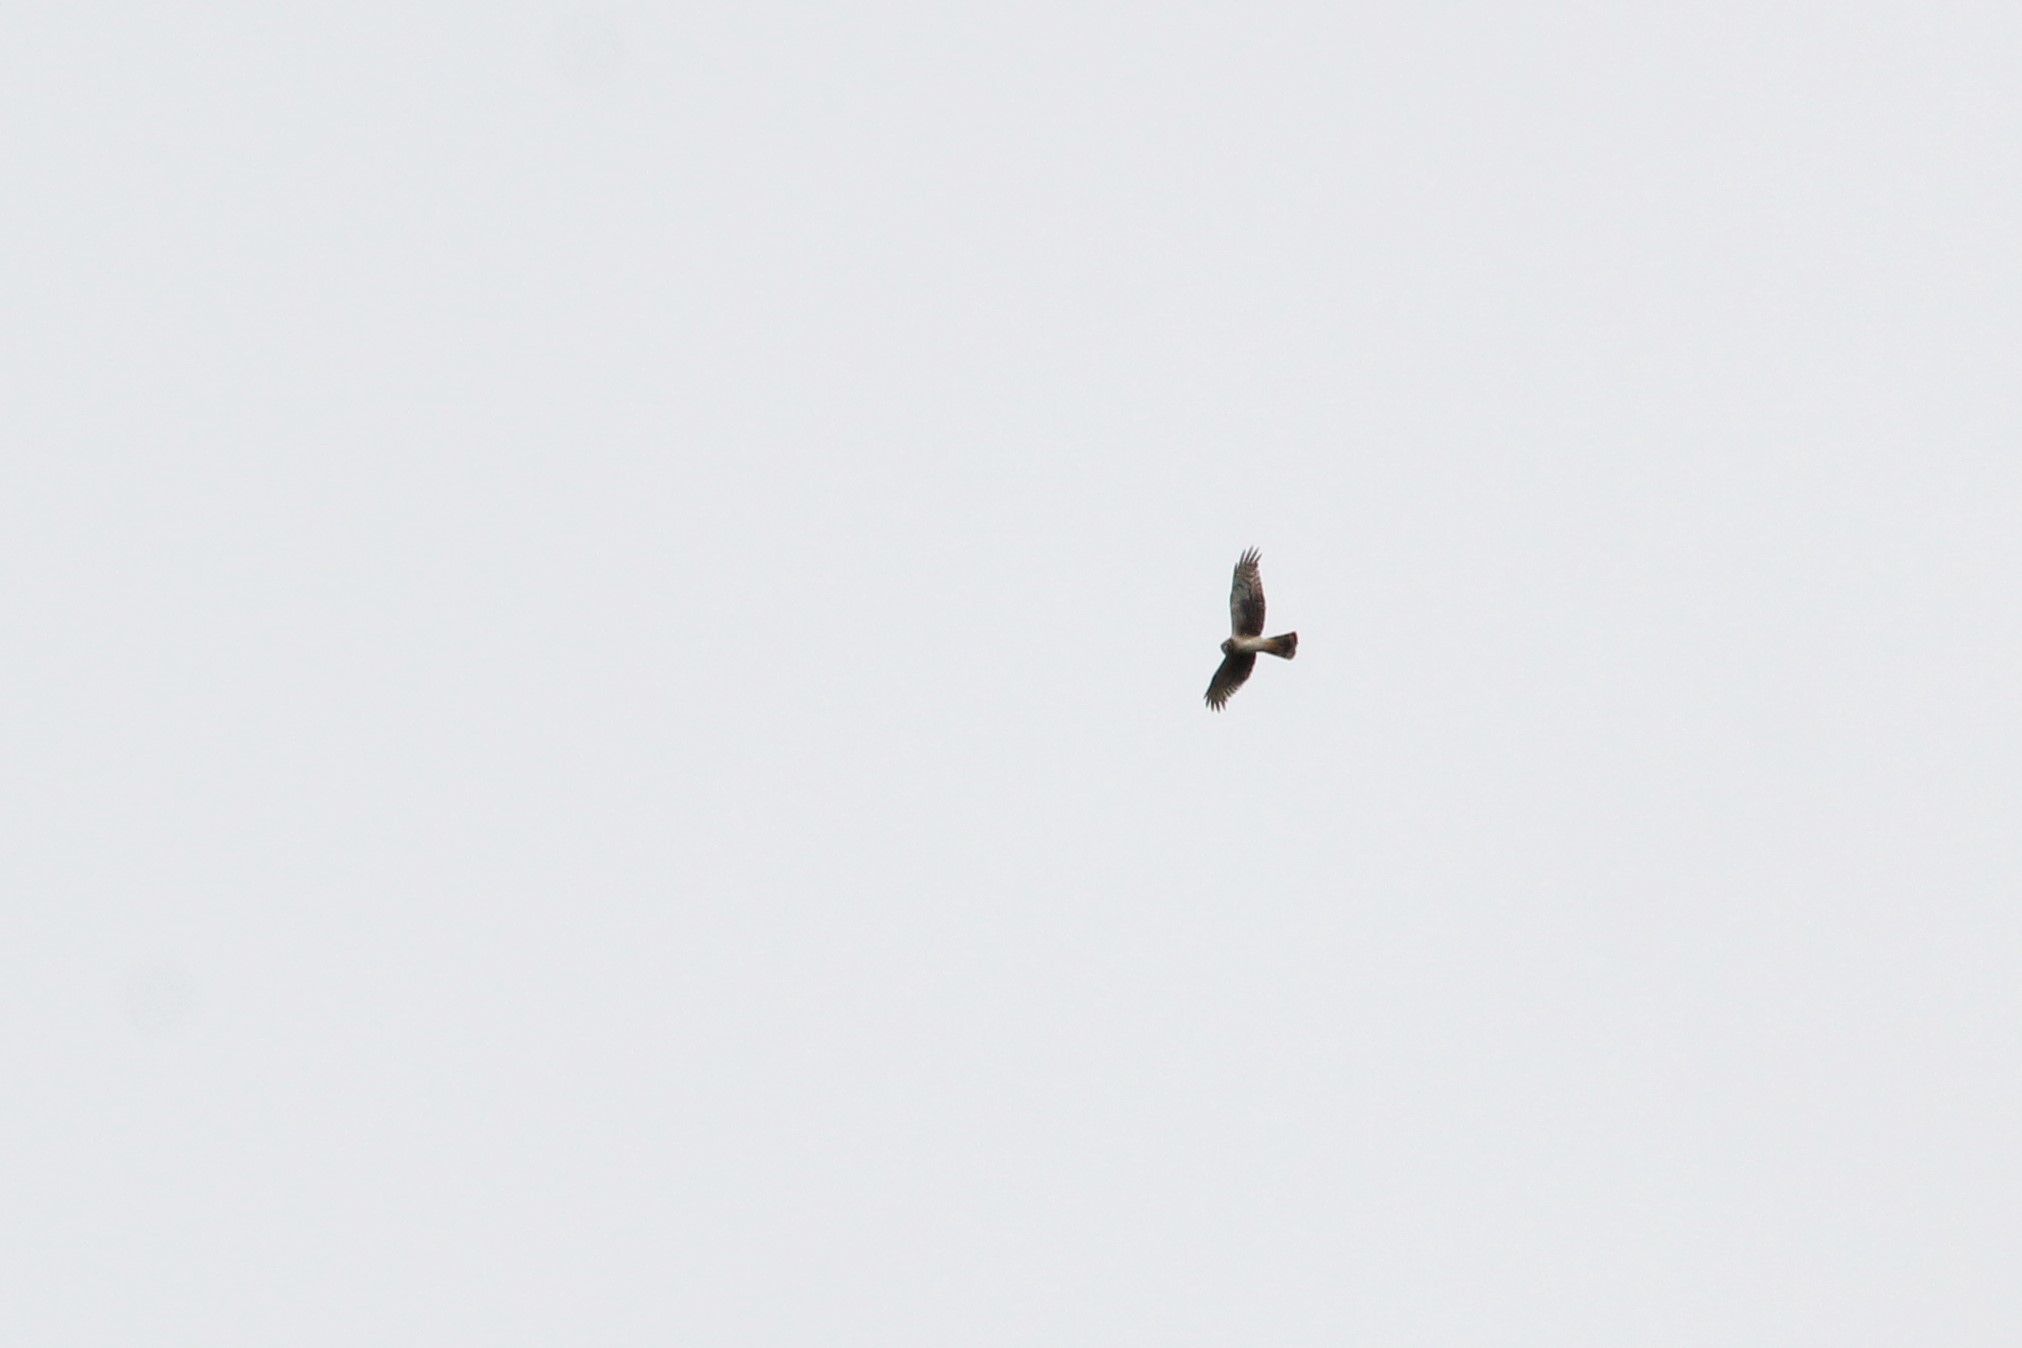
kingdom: Animalia
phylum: Chordata
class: Aves
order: Accipitriformes
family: Accipitridae
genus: Circus
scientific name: Circus cyaneus
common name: Hen harrier
